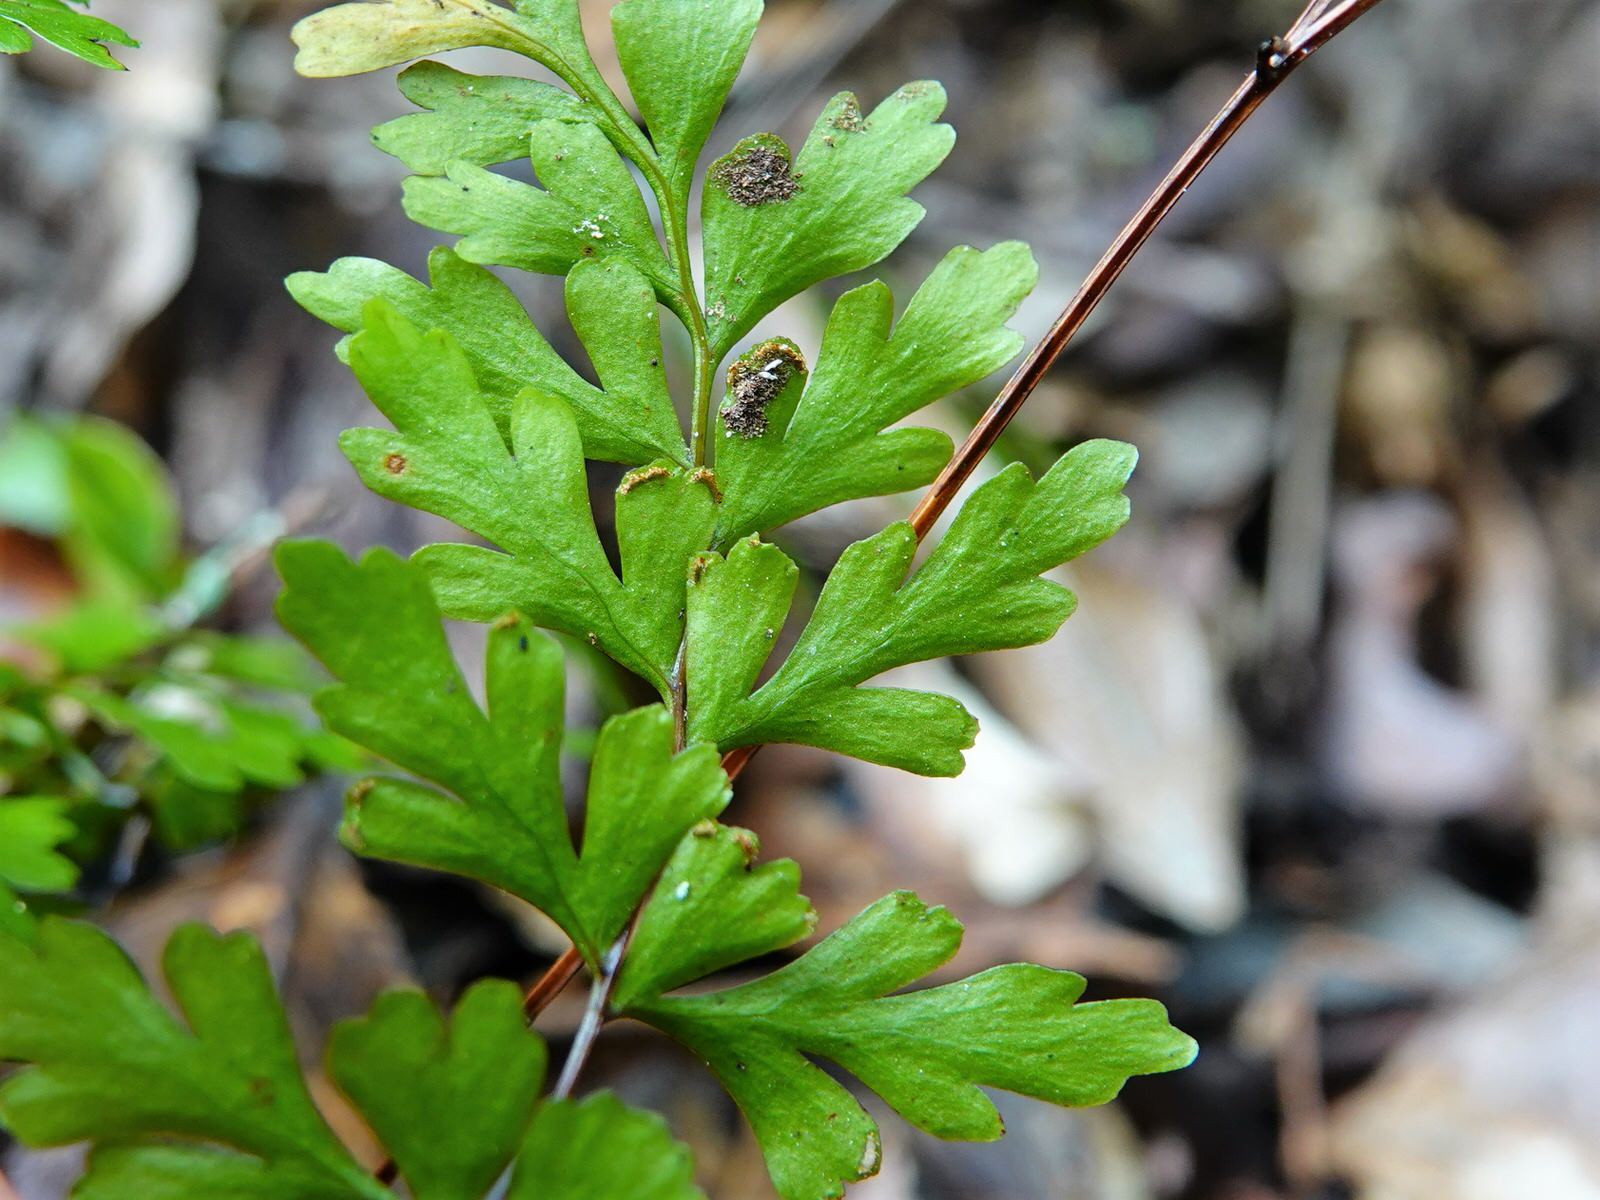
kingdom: Plantae
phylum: Tracheophyta
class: Polypodiopsida
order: Polypodiales
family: Lindsaeaceae
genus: Lindsaea
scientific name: Lindsaea trichomanoides
